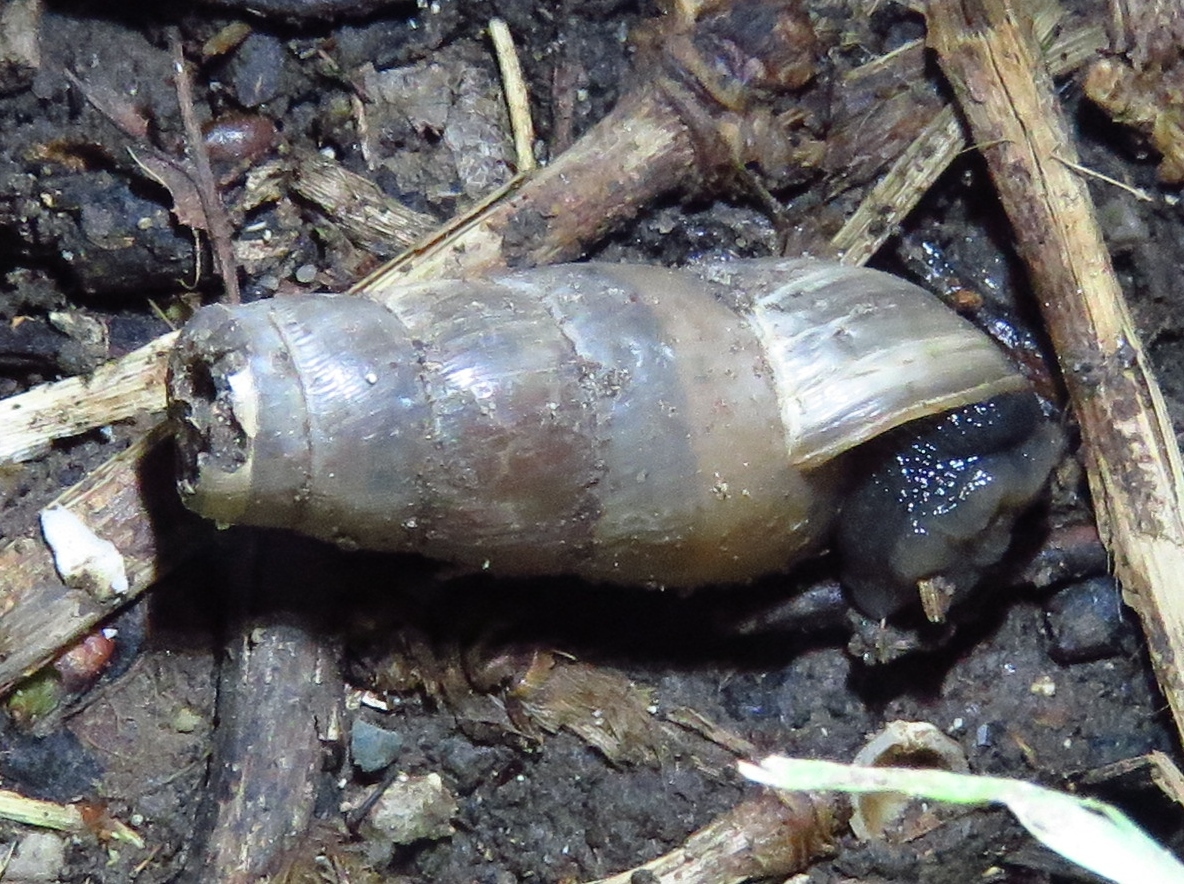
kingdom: Animalia
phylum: Mollusca
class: Gastropoda
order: Stylommatophora
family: Achatinidae
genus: Rumina
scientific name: Rumina decollata
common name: Decollate snail
